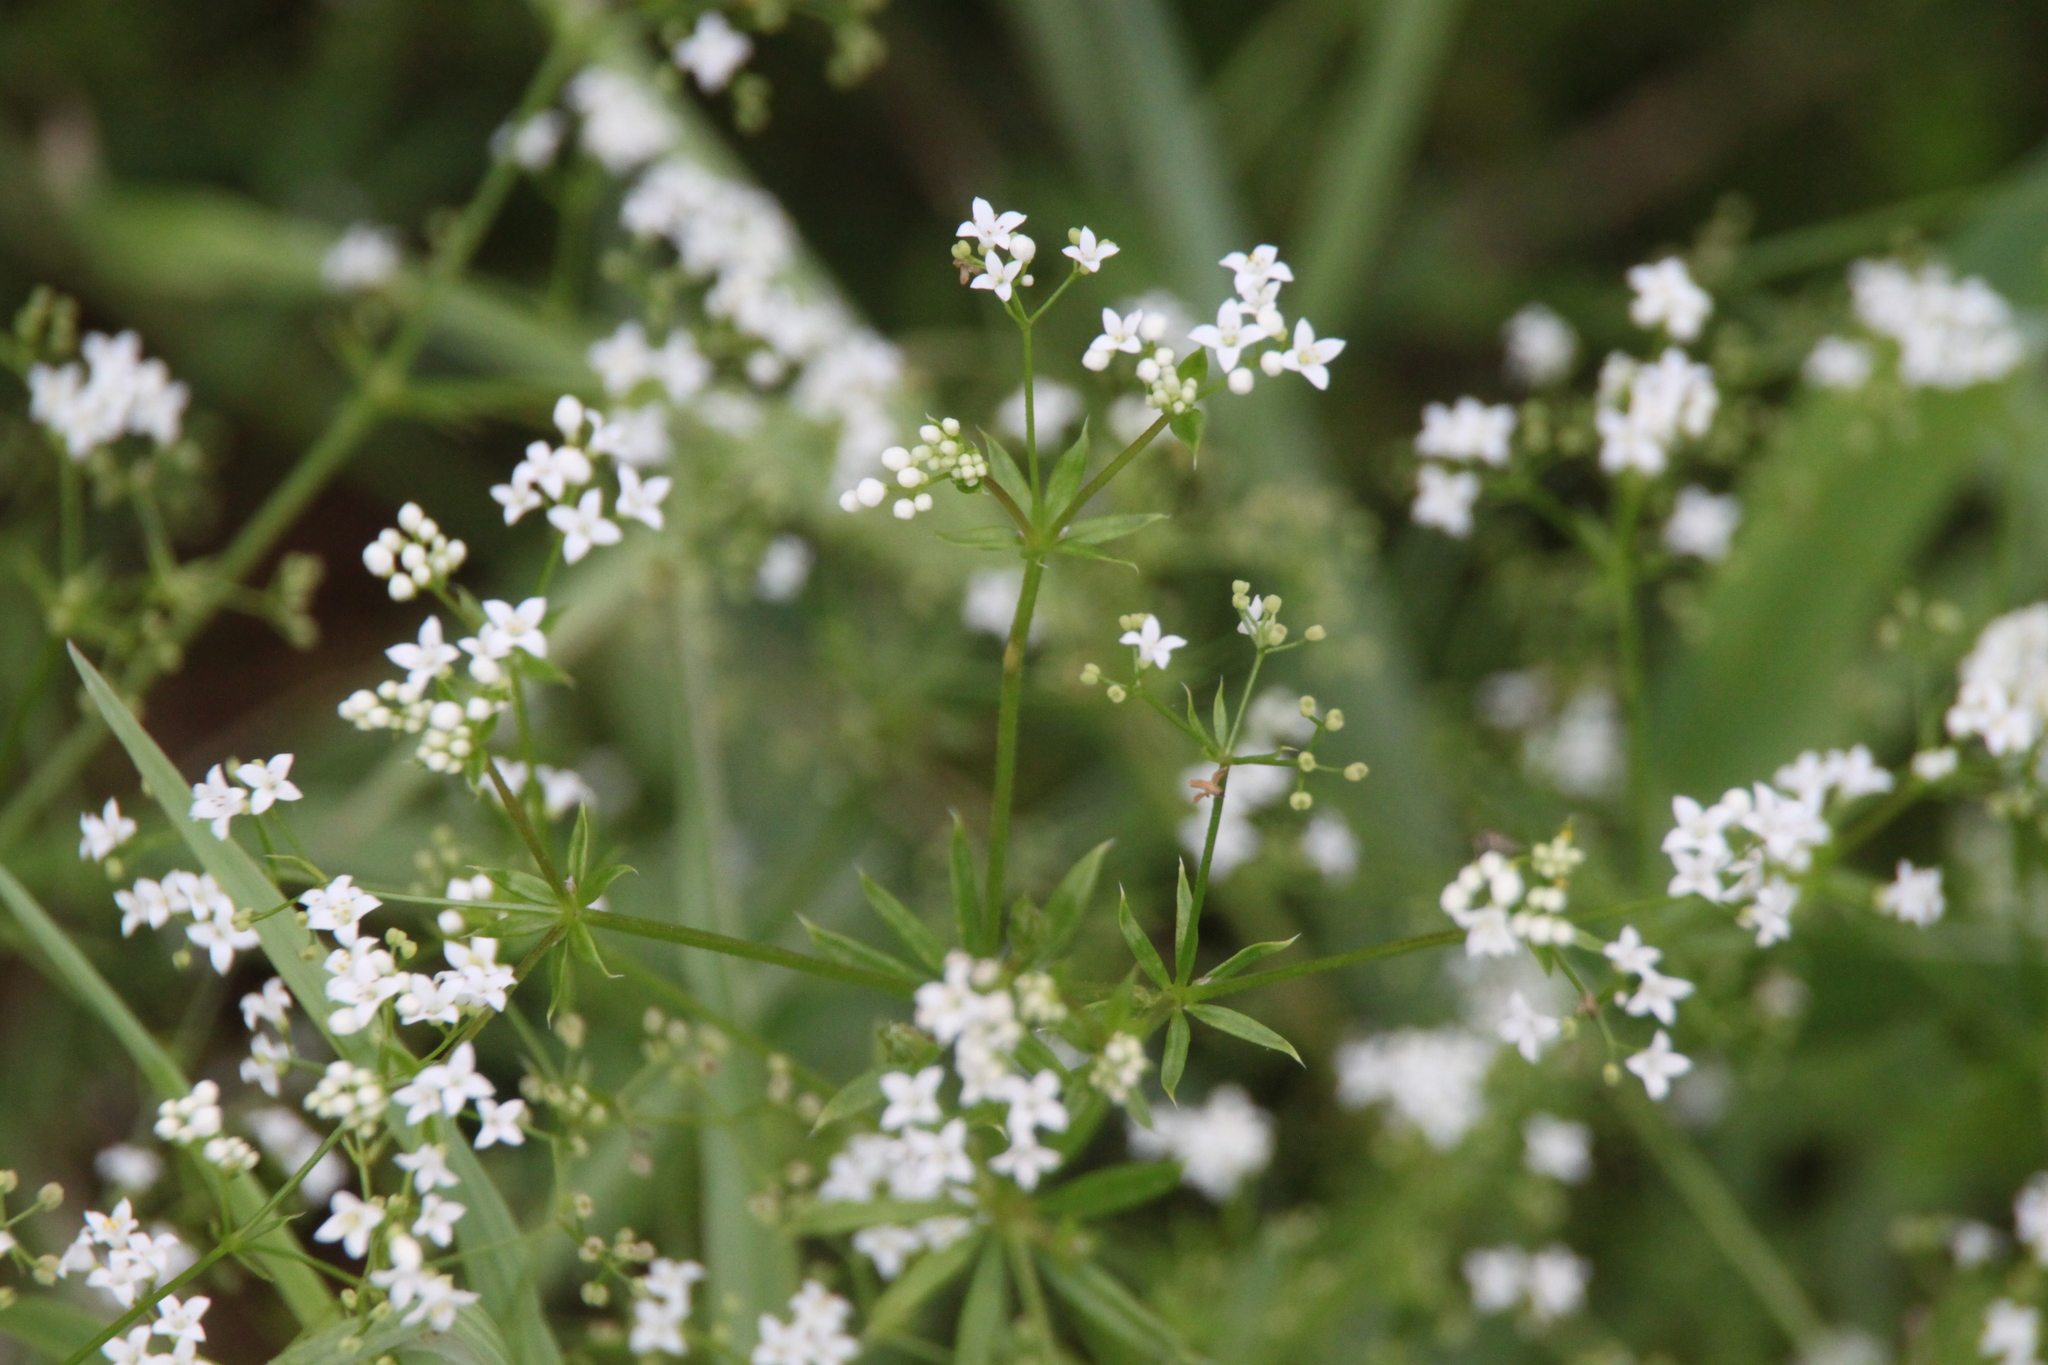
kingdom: Plantae
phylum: Tracheophyta
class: Magnoliopsida
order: Gentianales
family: Rubiaceae
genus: Galium
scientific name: Galium rivale
